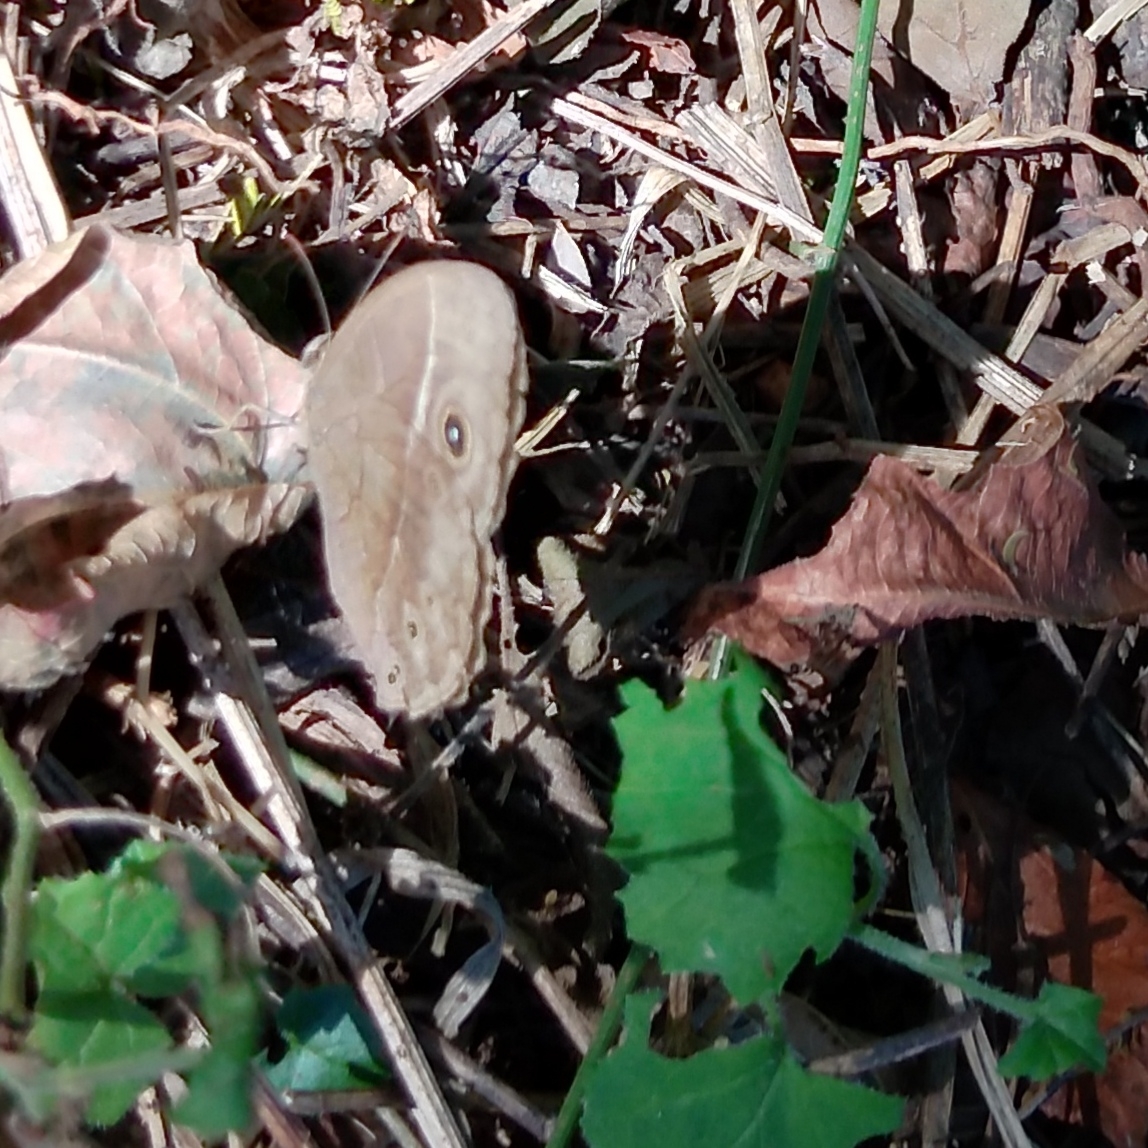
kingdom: Animalia
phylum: Arthropoda
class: Insecta
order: Lepidoptera
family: Nymphalidae
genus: Mycalesis
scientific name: Mycalesis rhacotis
